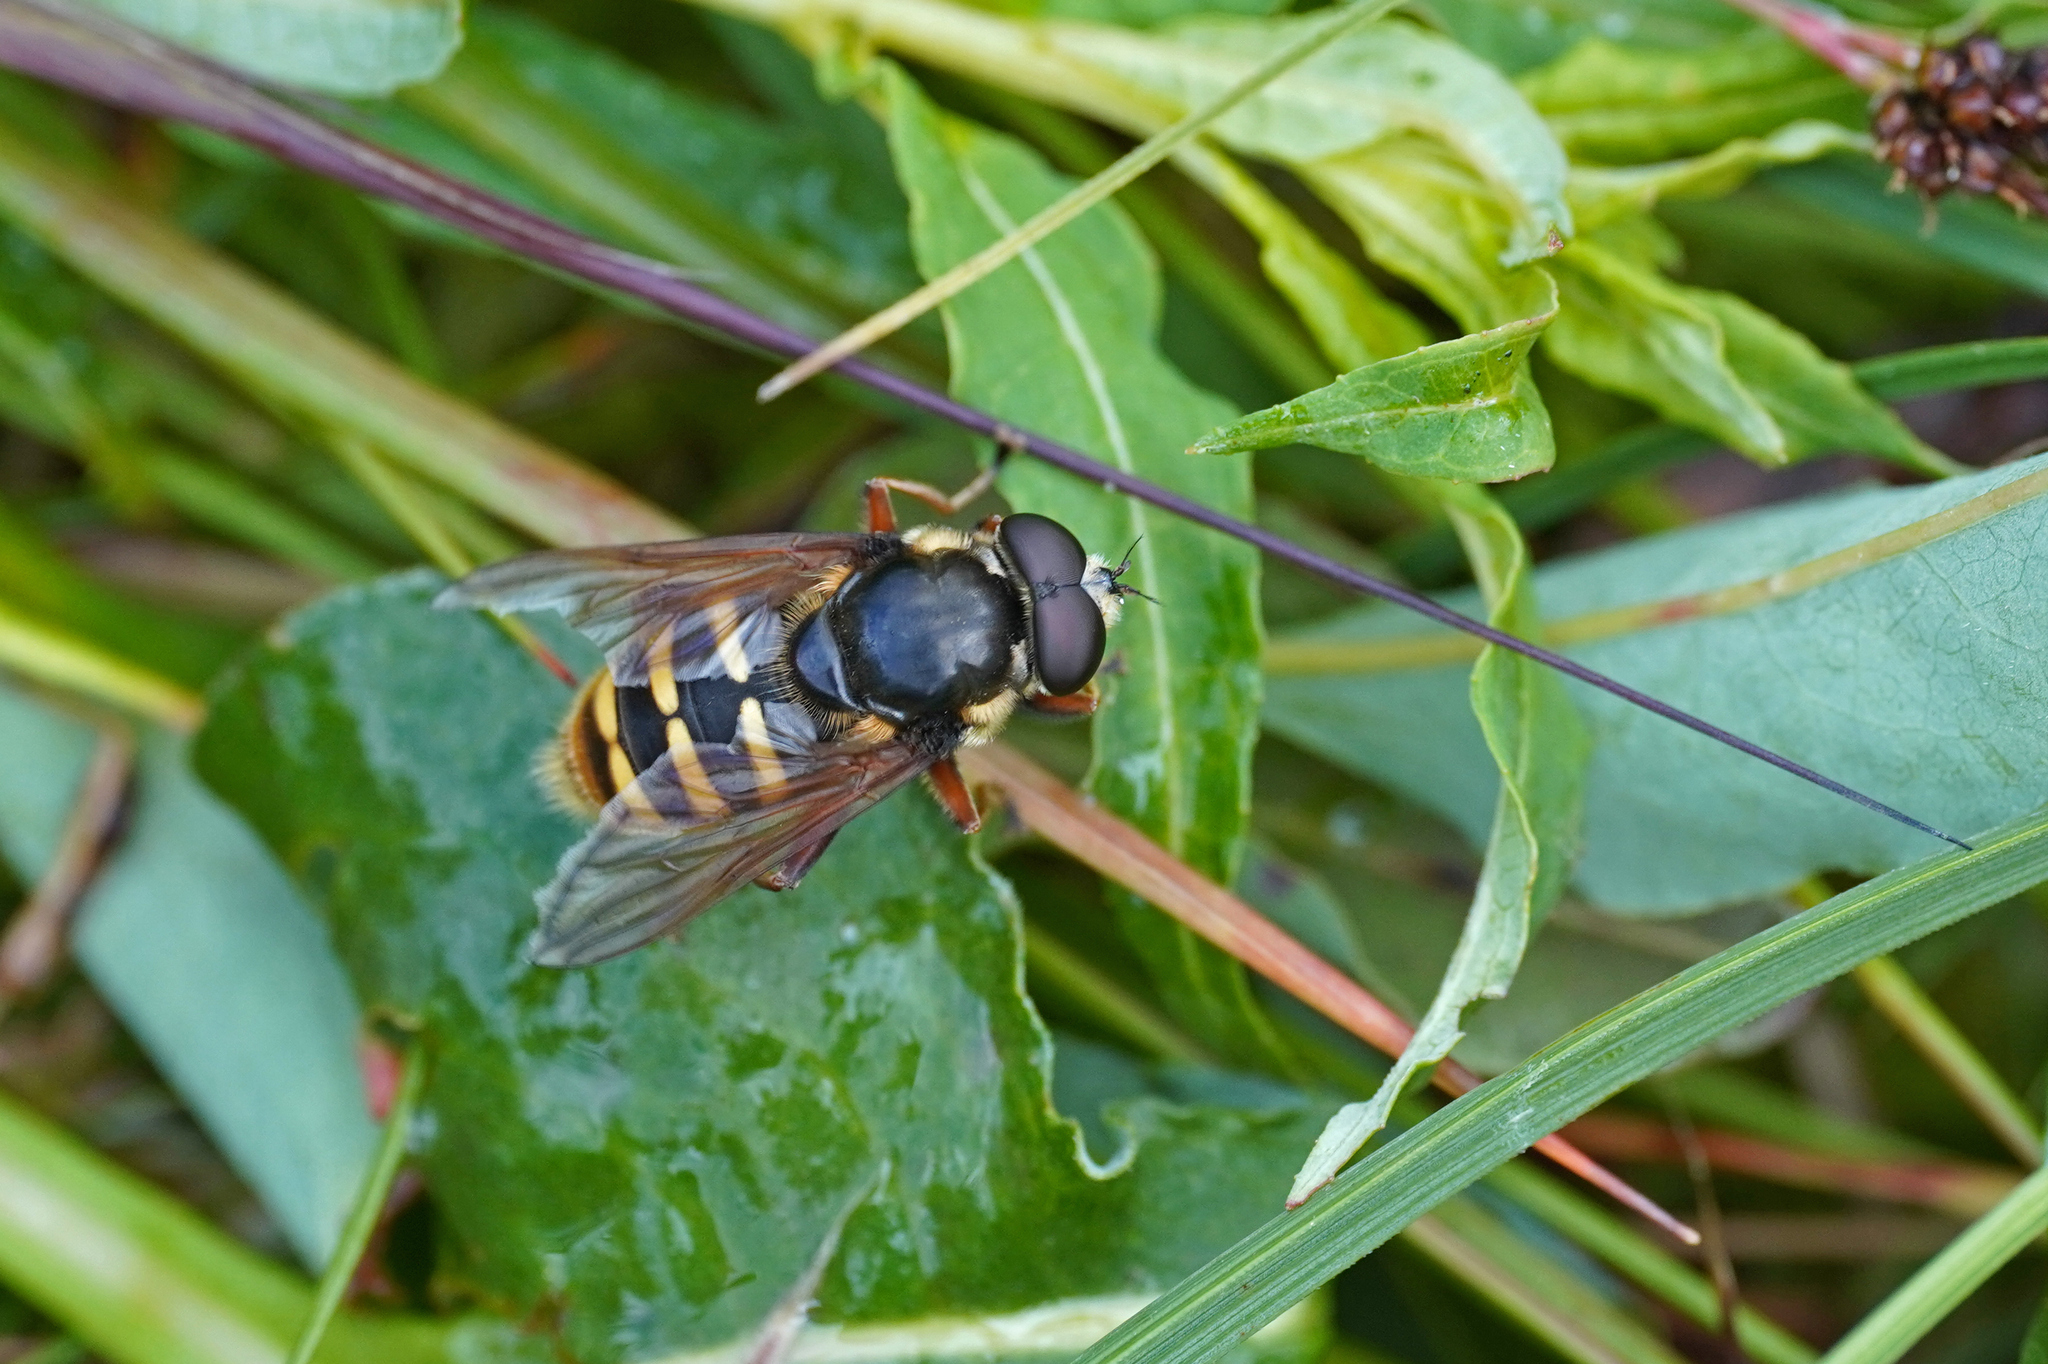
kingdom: Animalia
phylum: Arthropoda
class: Insecta
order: Diptera
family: Syrphidae
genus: Sericomyia
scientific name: Sericomyia silentis
